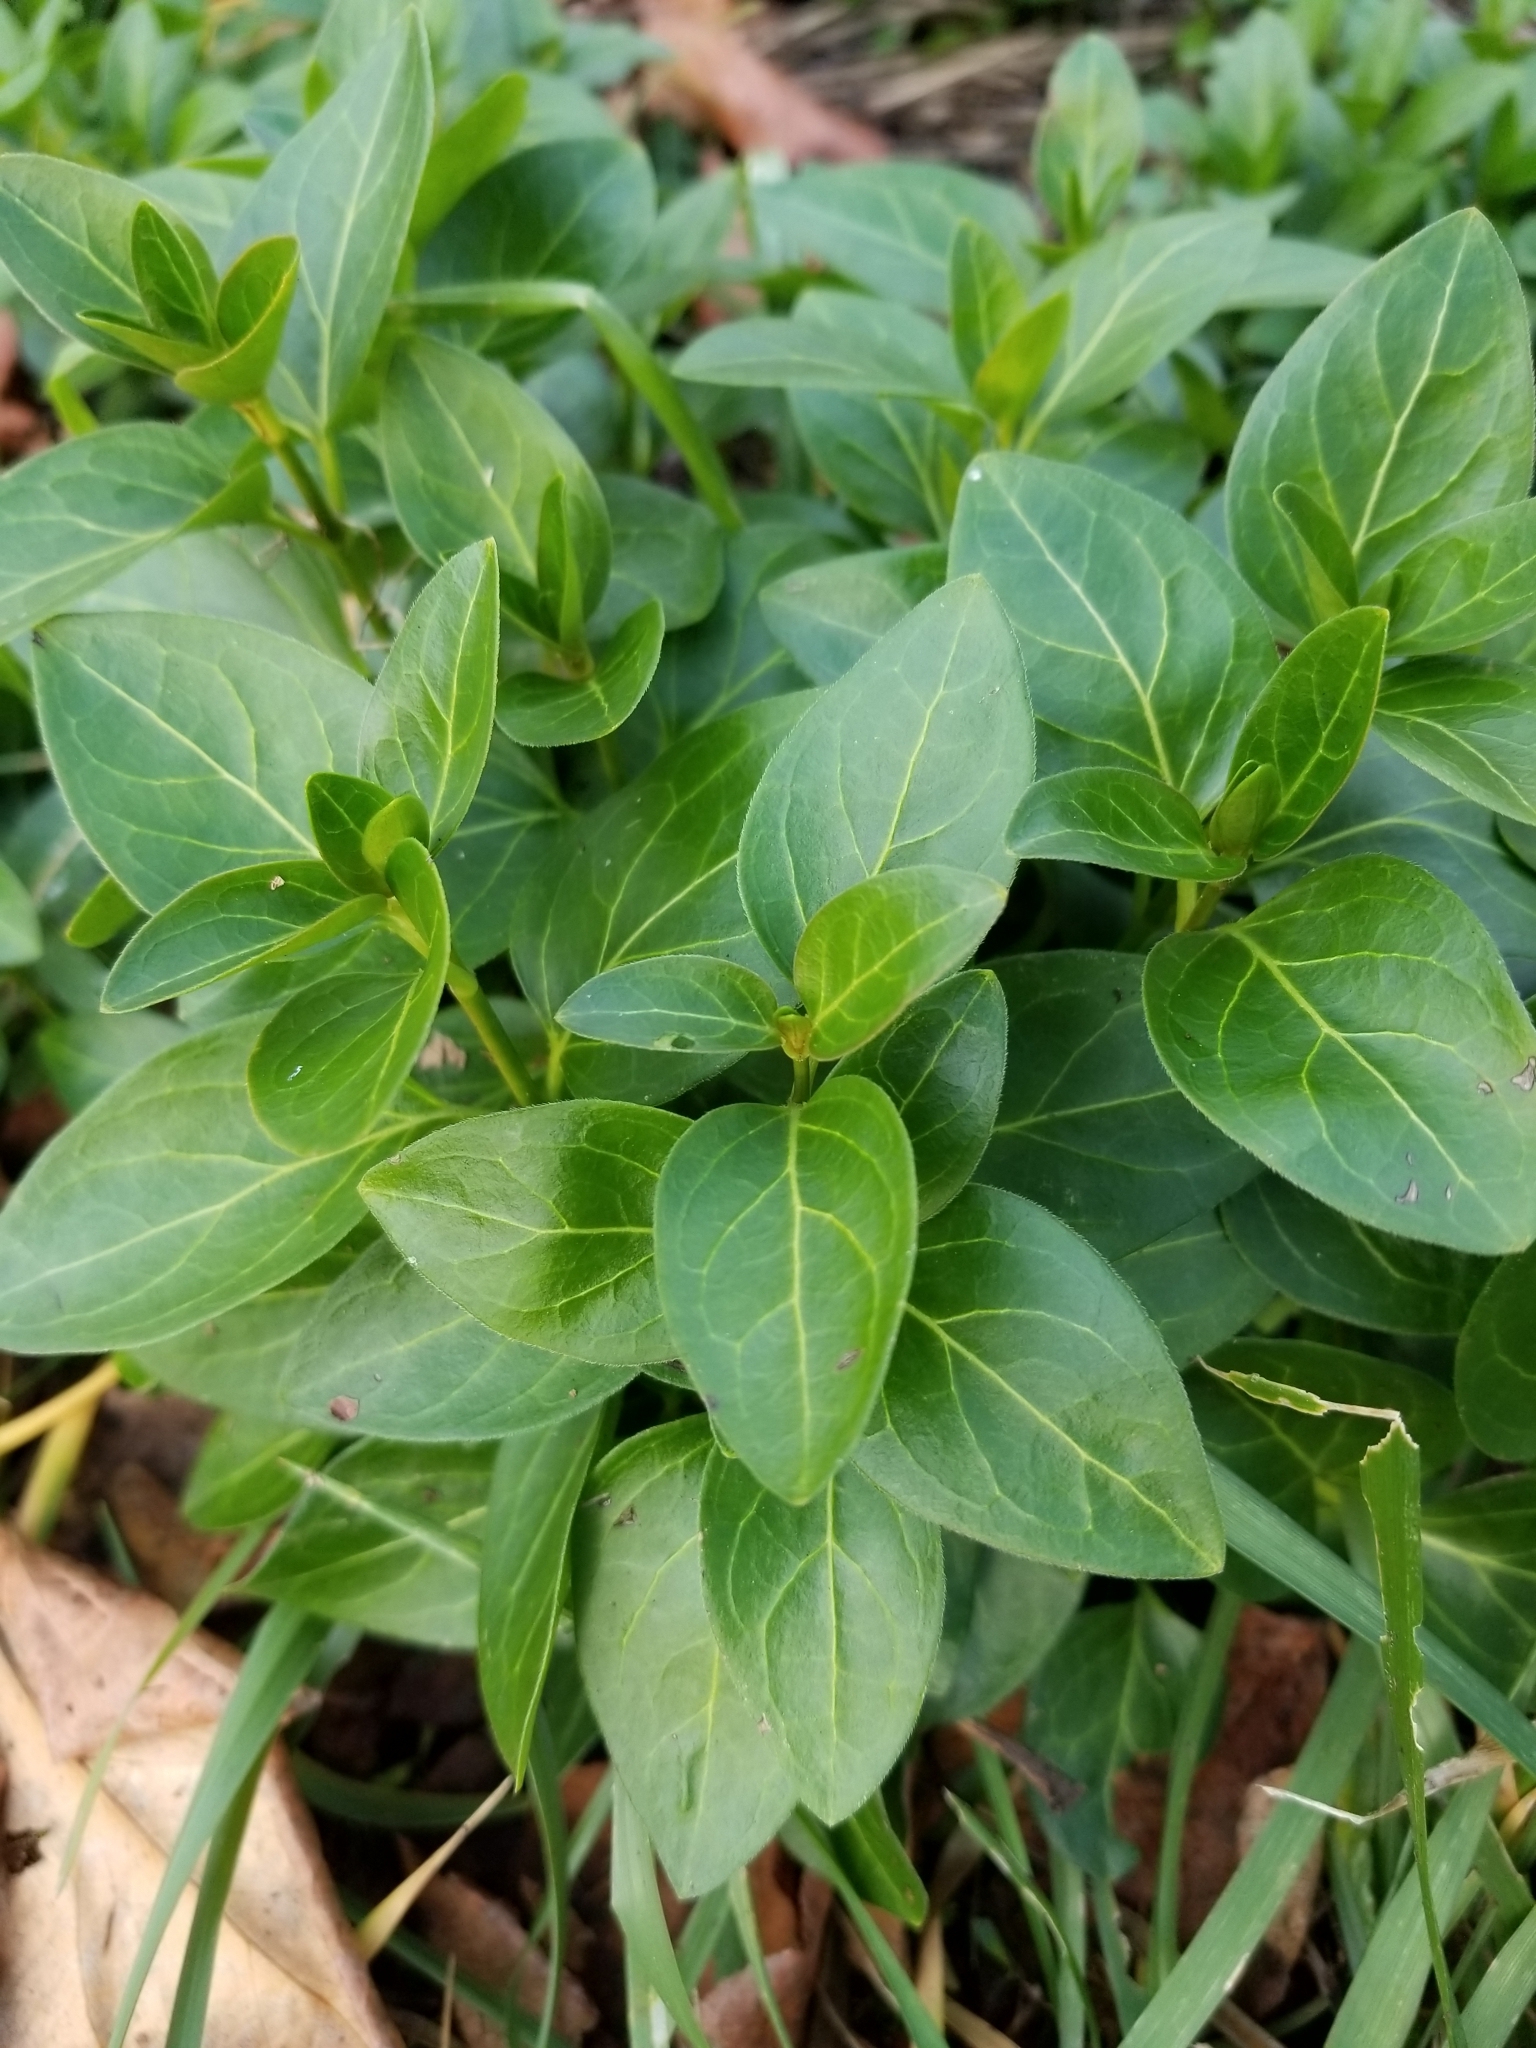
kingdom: Plantae
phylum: Tracheophyta
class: Magnoliopsida
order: Gentianales
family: Apocynaceae
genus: Vinca
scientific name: Vinca major
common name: Greater periwinkle
